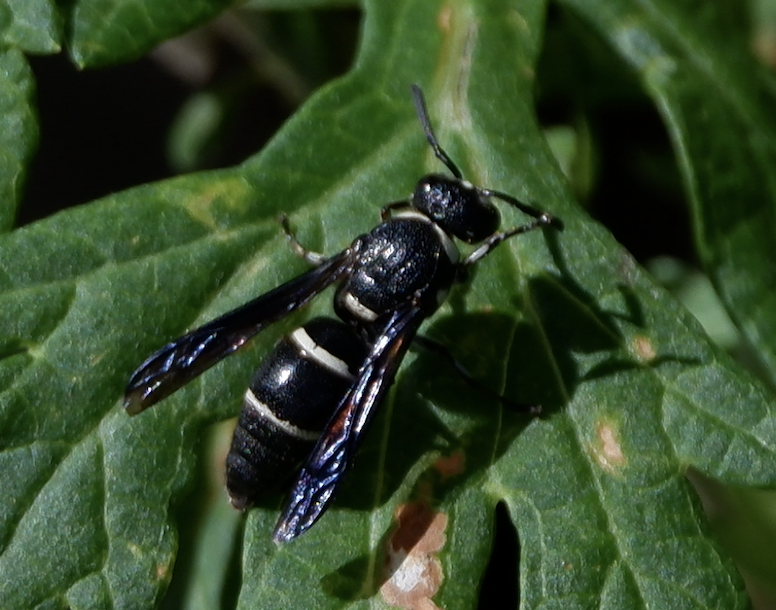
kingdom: Animalia
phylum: Arthropoda
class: Insecta
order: Hymenoptera
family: Eumenidae
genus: Euodynerus
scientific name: Euodynerus schwarzi
